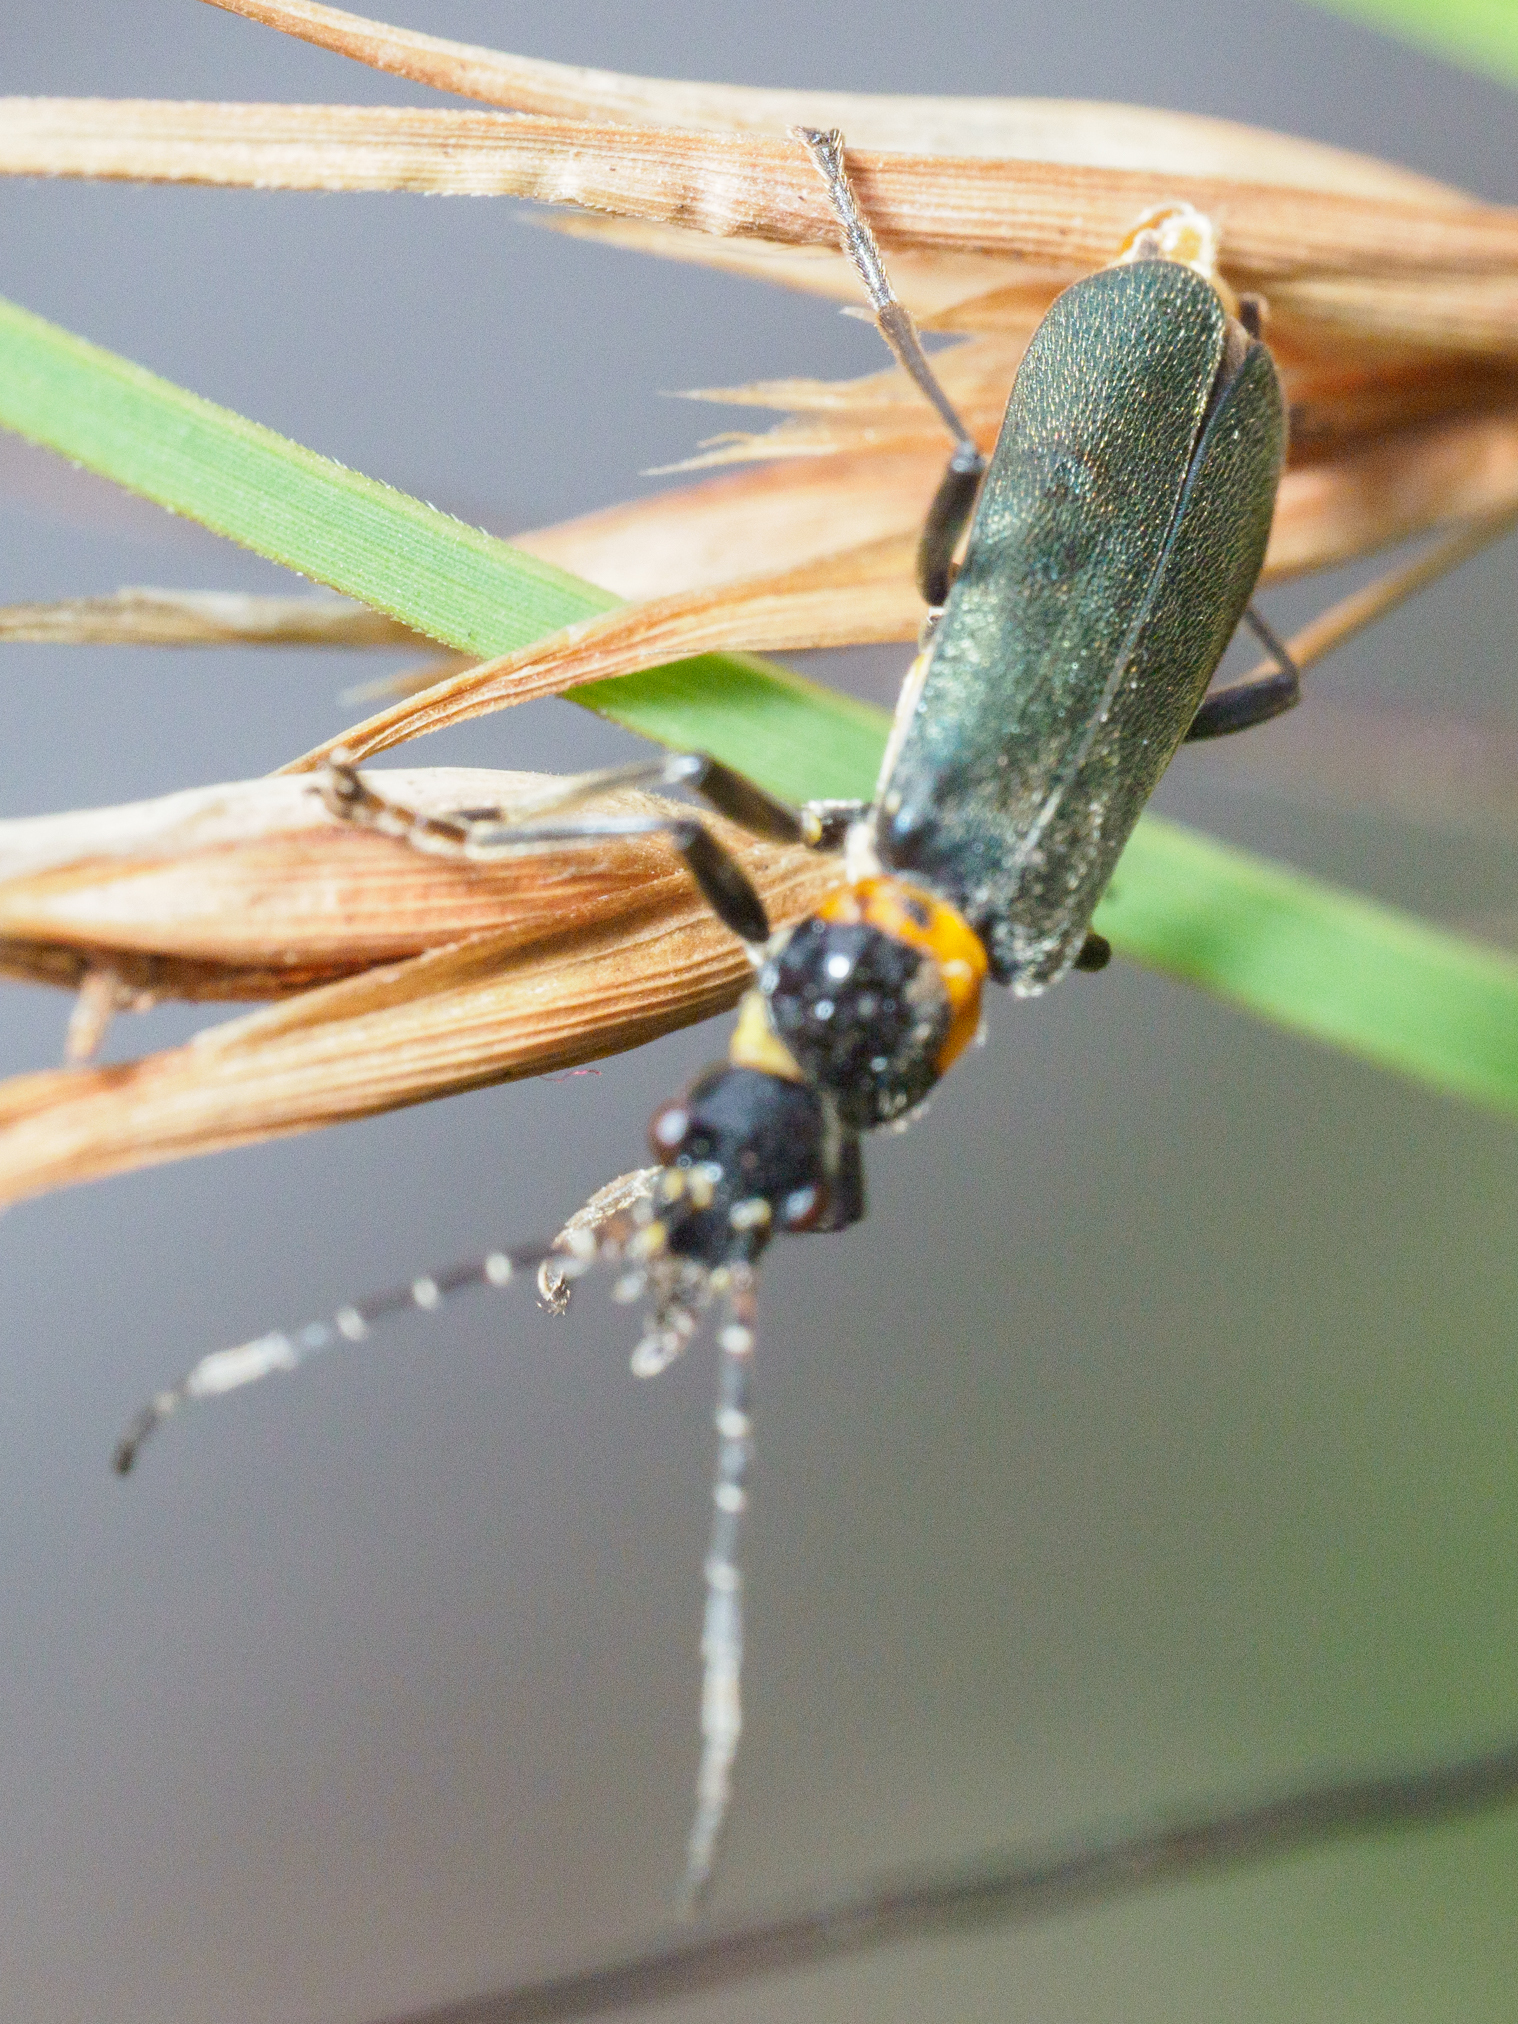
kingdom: Animalia
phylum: Arthropoda
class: Insecta
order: Coleoptera
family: Cantharidae
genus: Chauliognathus
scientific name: Chauliognathus
